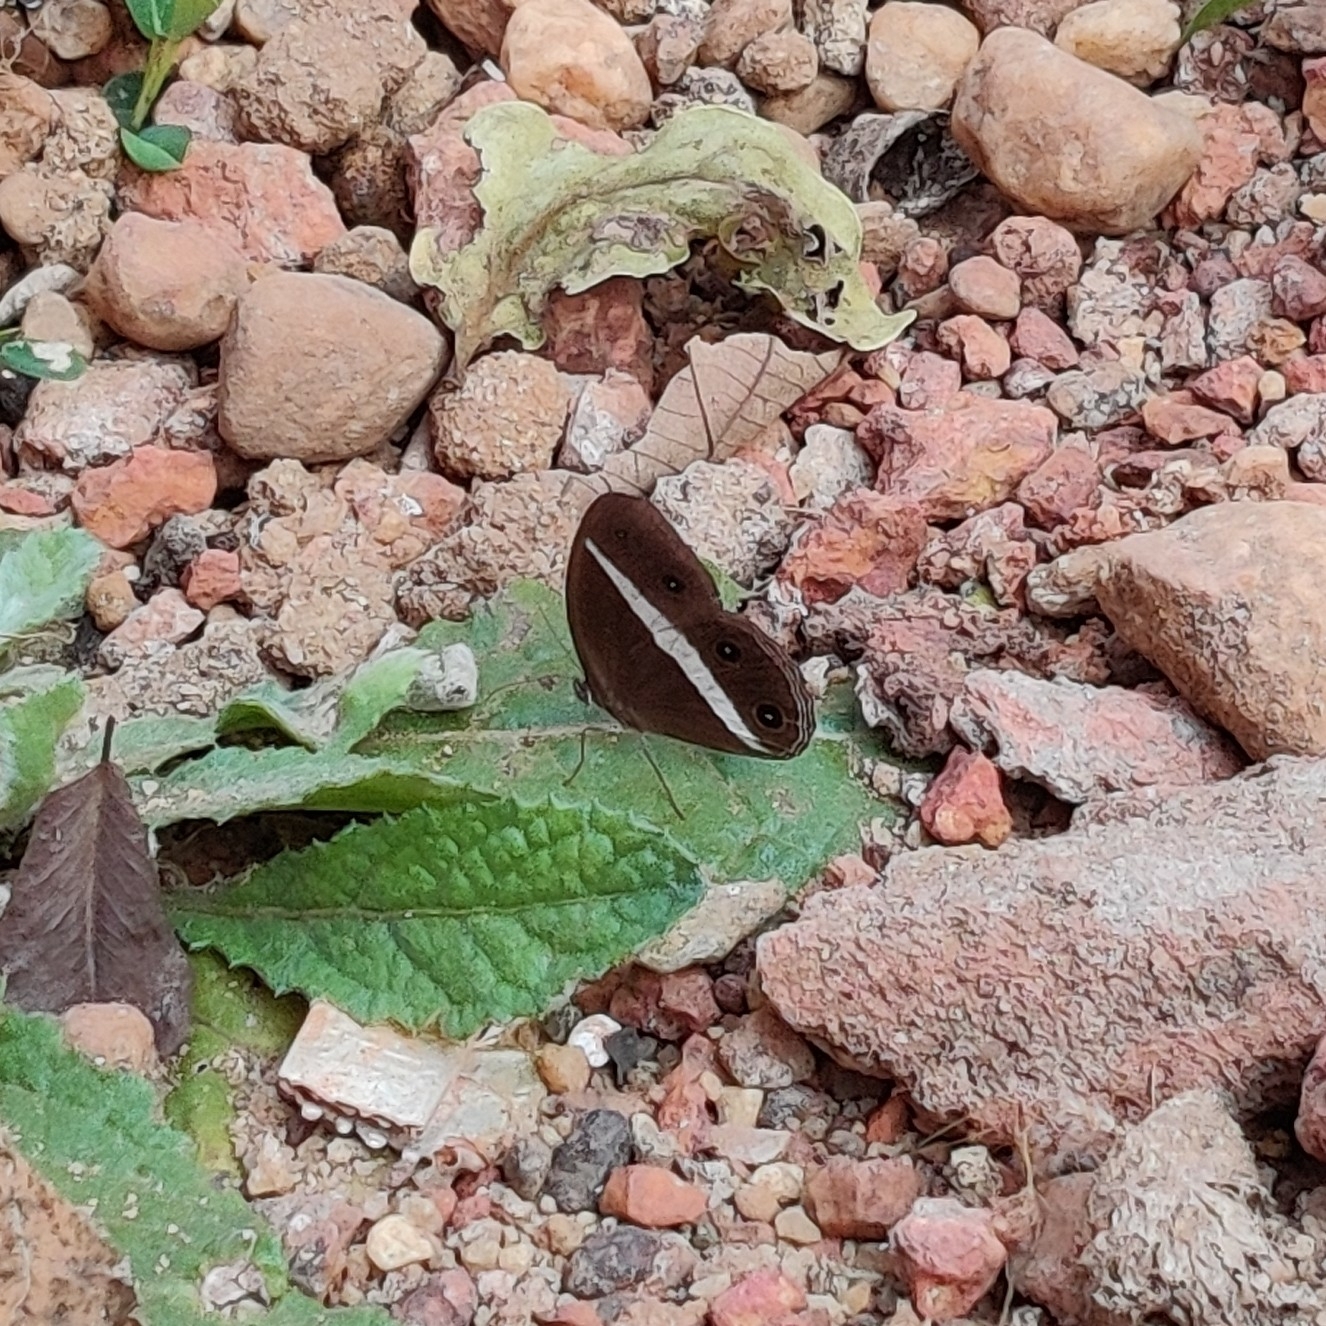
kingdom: Animalia
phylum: Arthropoda
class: Insecta
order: Lepidoptera
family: Nymphalidae
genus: Orsotriaena
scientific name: Orsotriaena medus
